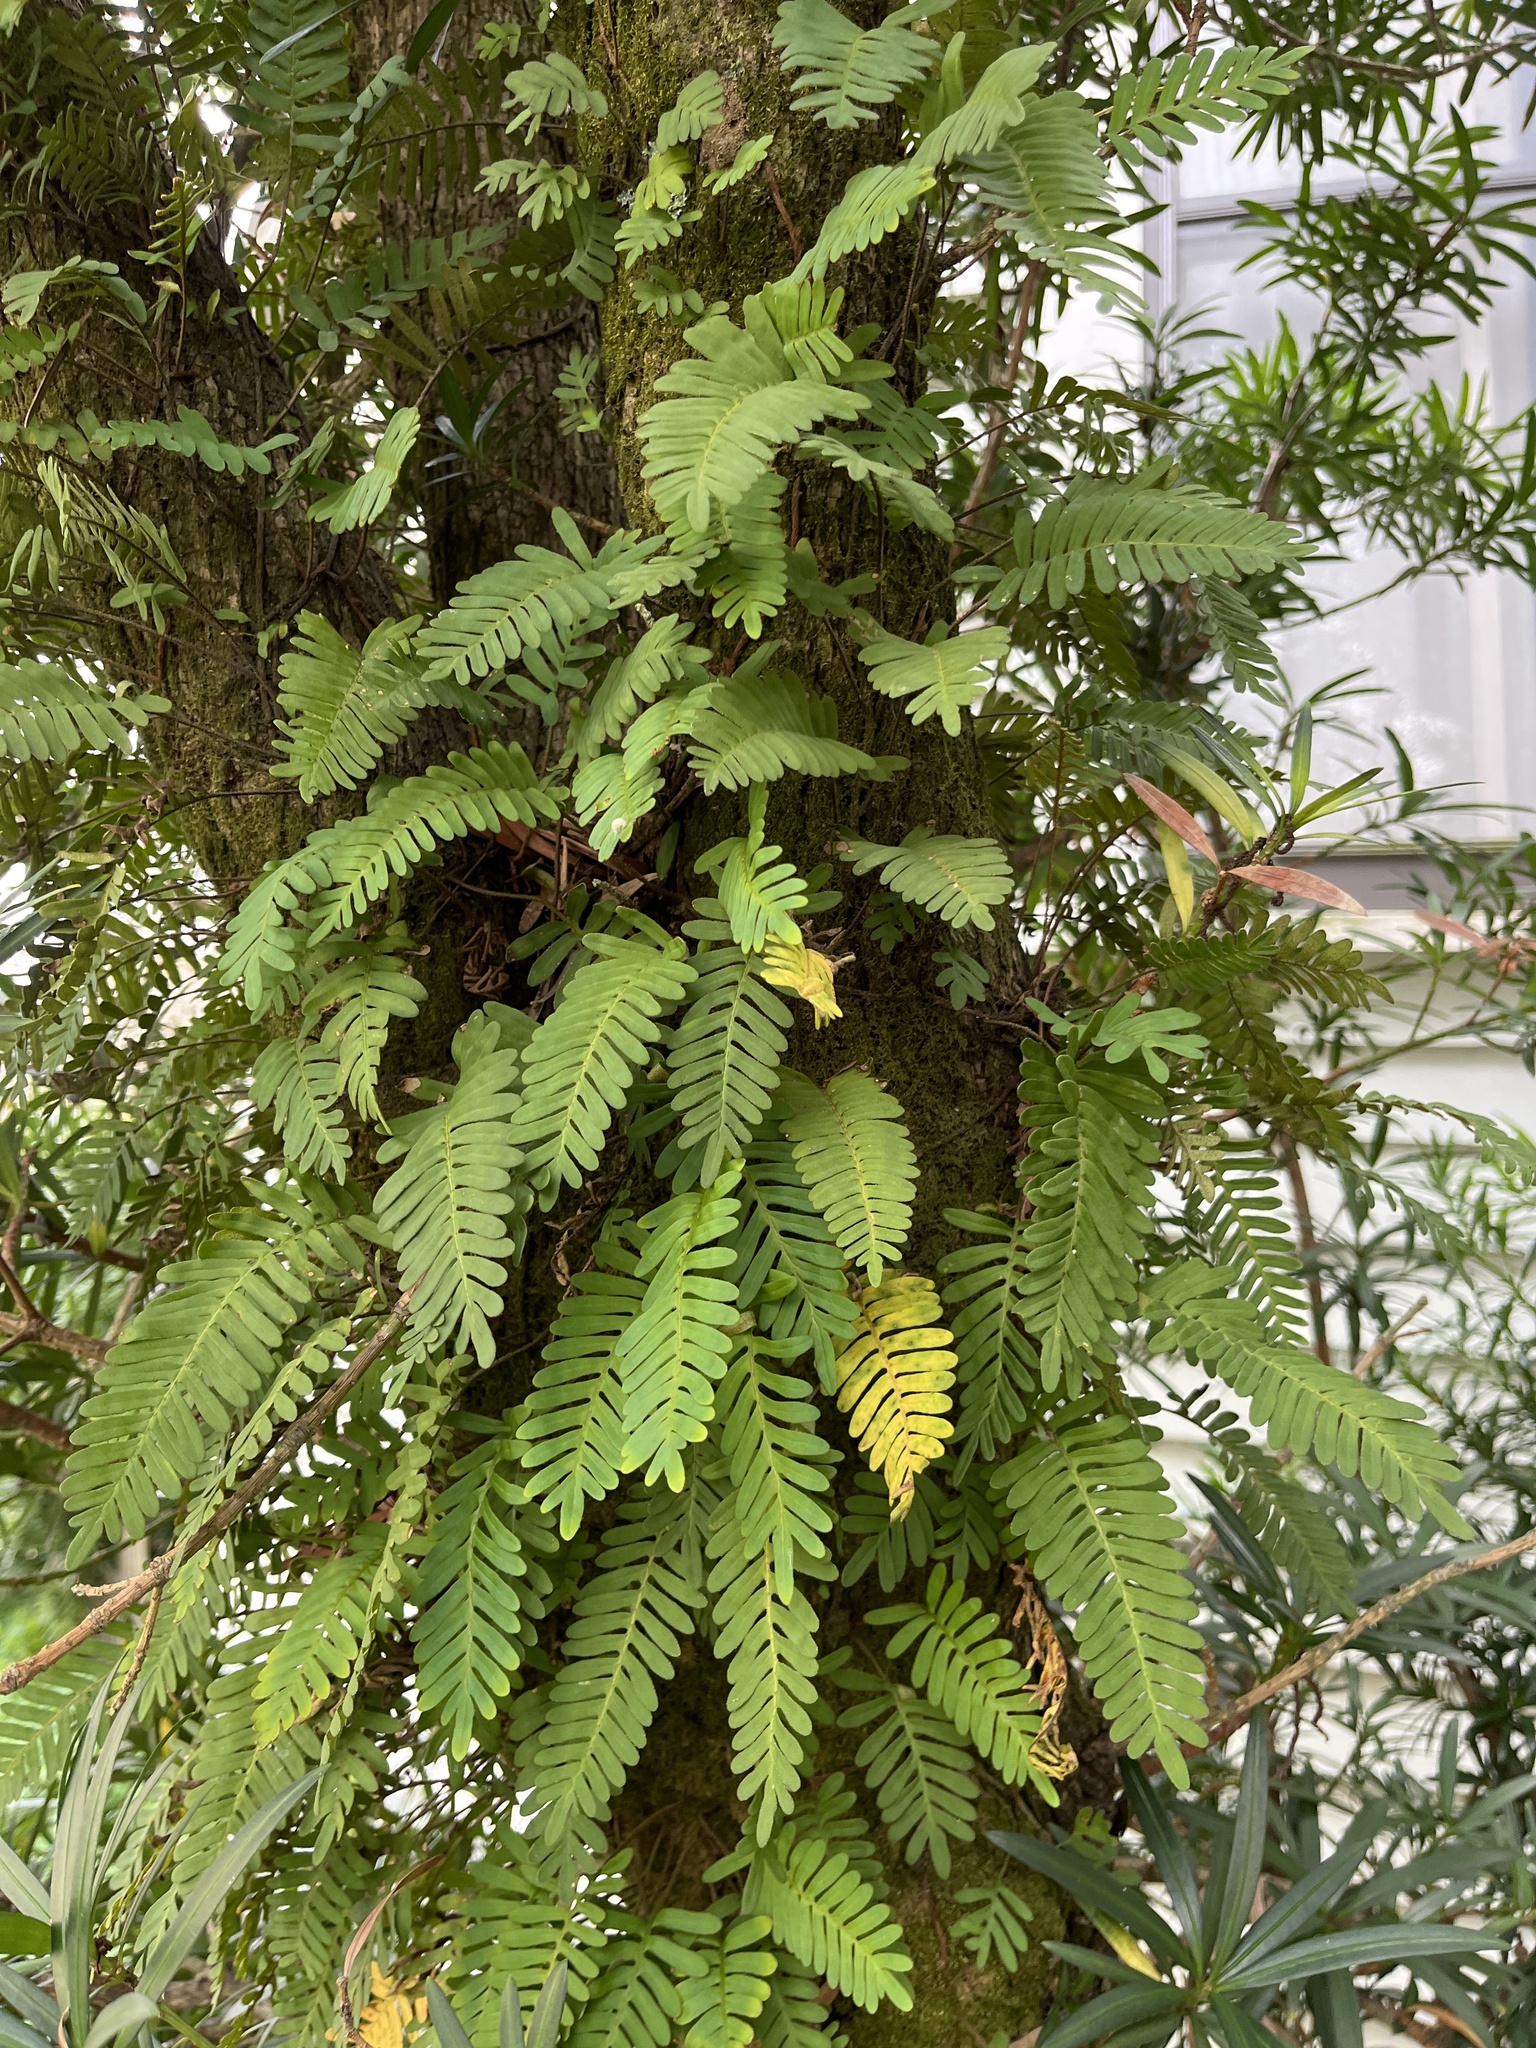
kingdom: Plantae
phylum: Tracheophyta
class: Polypodiopsida
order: Polypodiales
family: Polypodiaceae
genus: Pleopeltis
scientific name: Pleopeltis michauxiana
